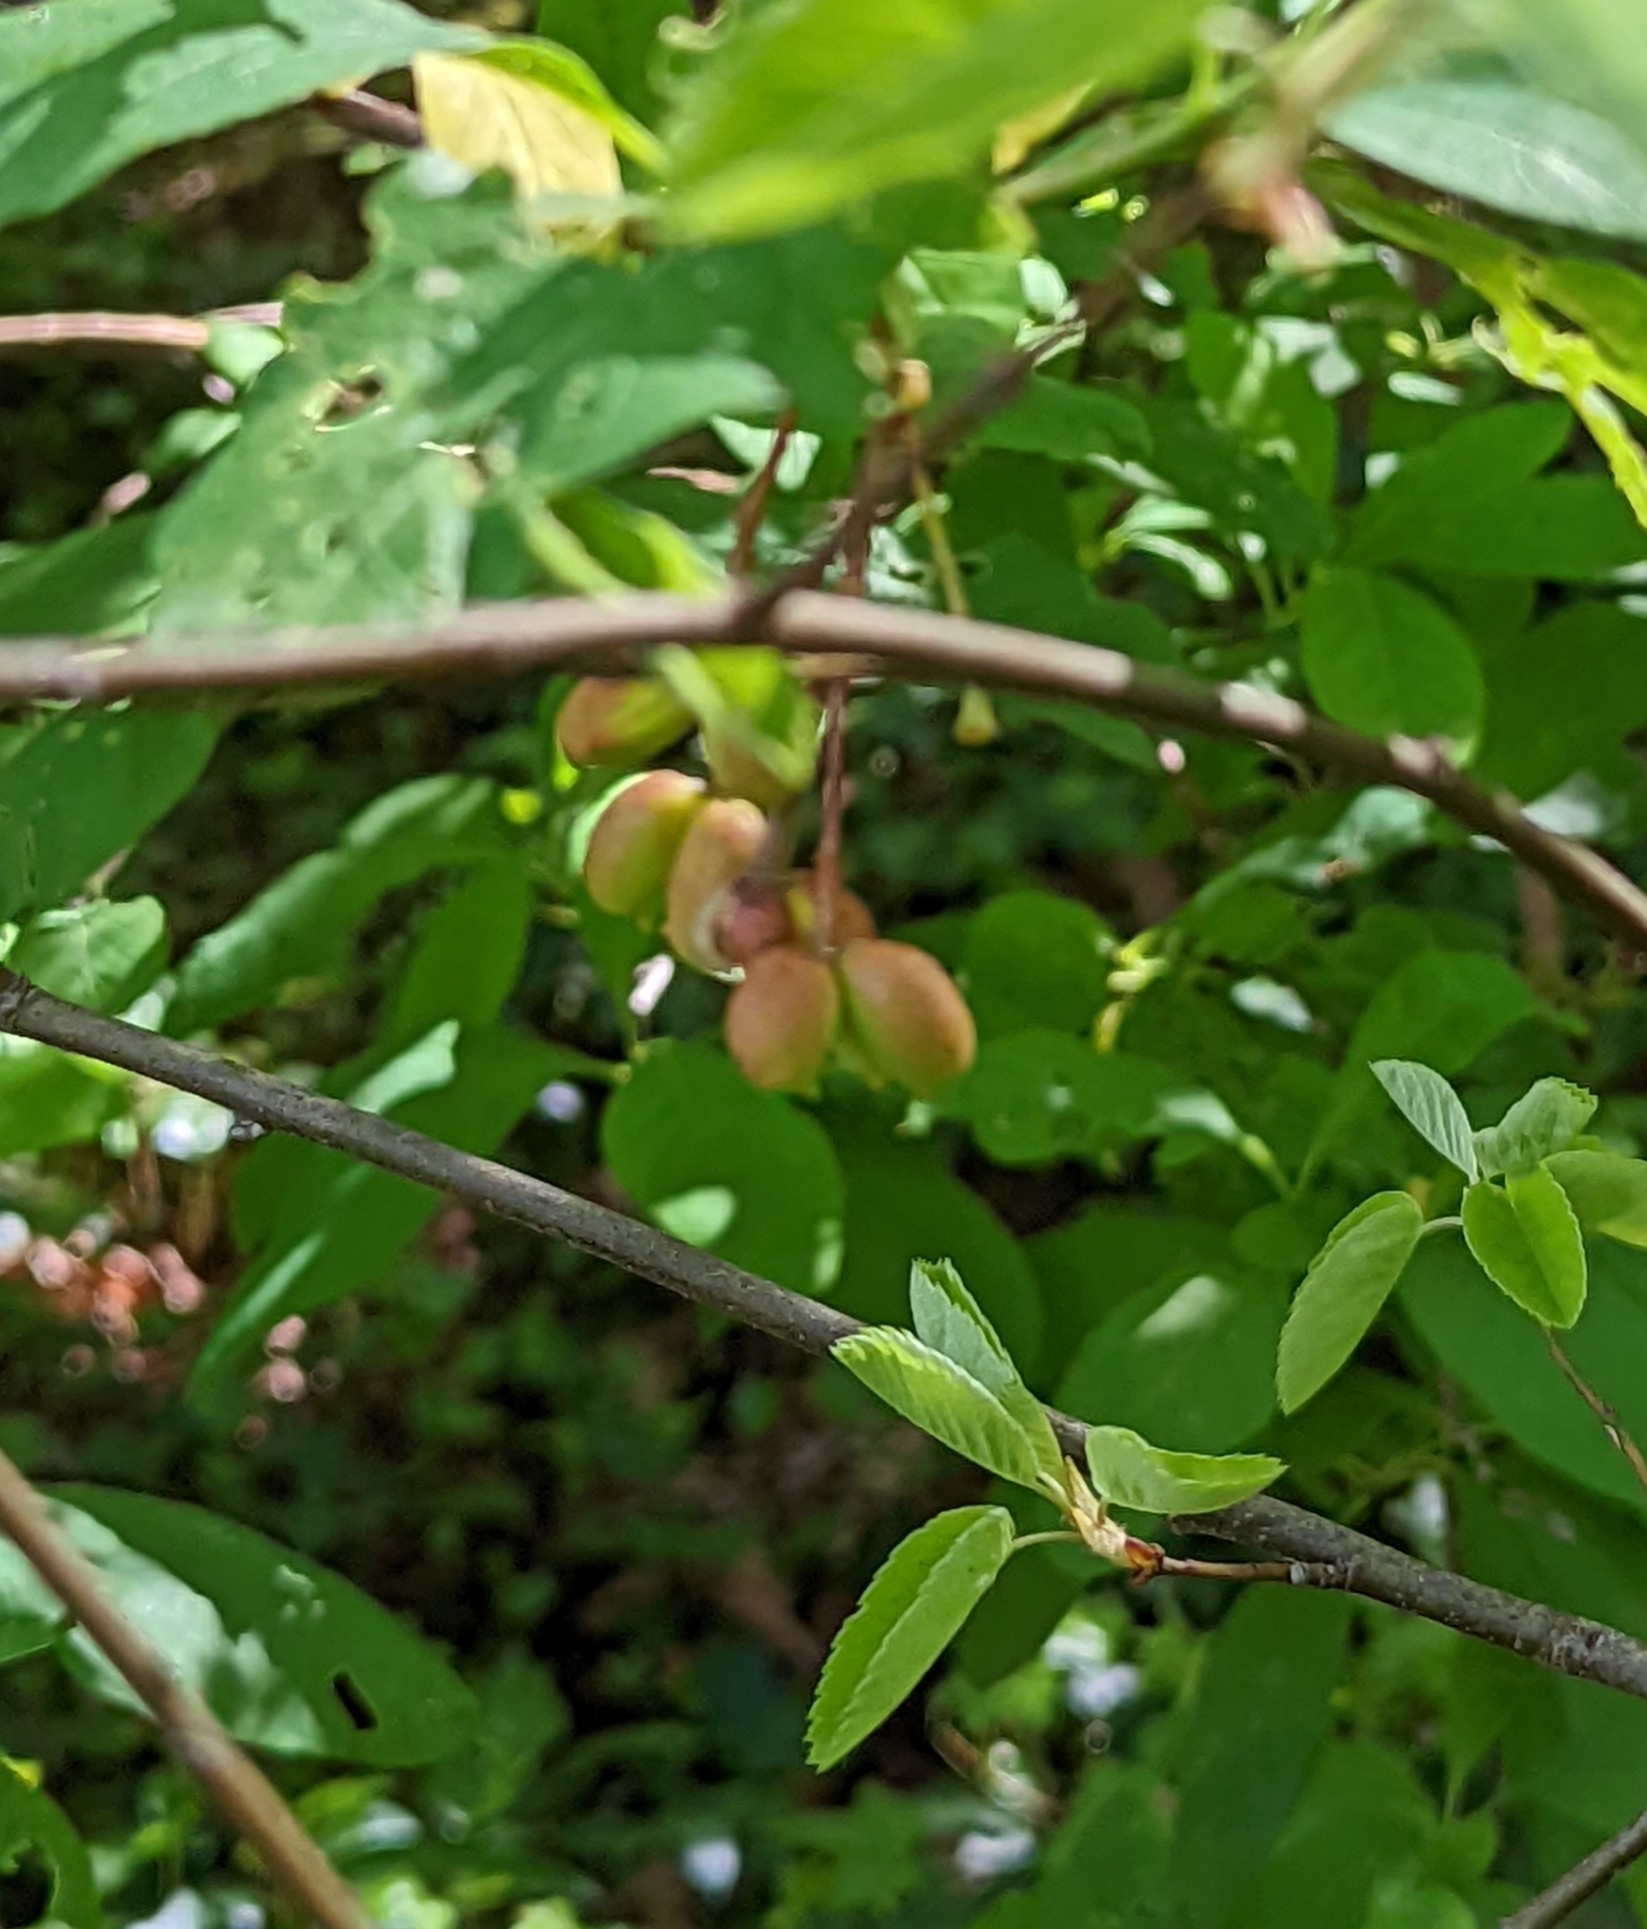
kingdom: Plantae
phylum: Tracheophyta
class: Magnoliopsida
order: Rosales
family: Rosaceae
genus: Oemleria
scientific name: Oemleria cerasiformis
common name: Osoberry
